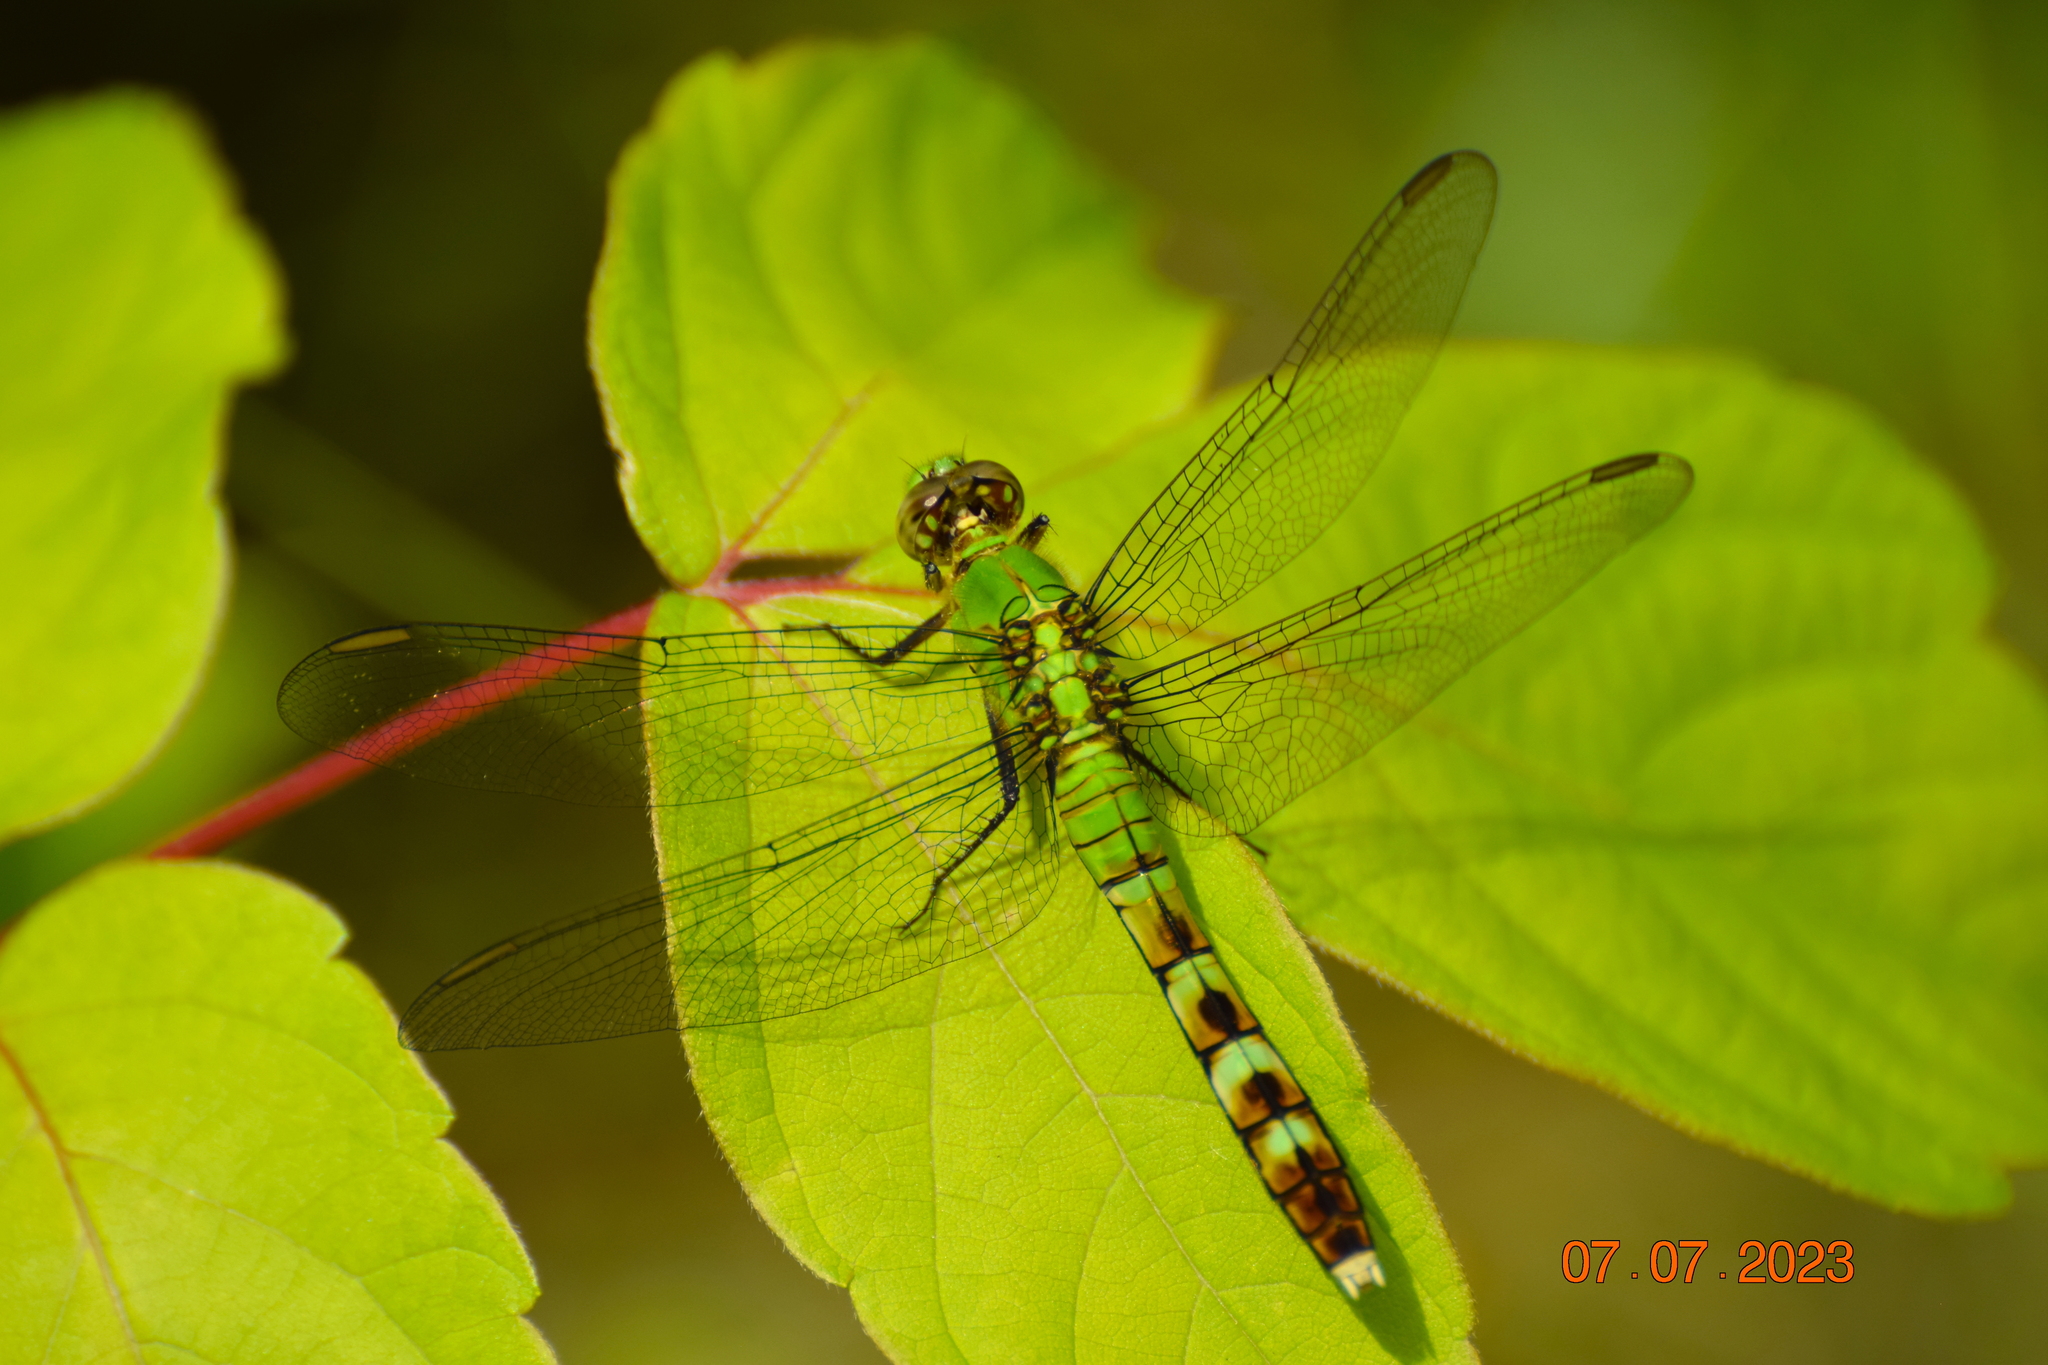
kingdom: Animalia
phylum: Arthropoda
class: Insecta
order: Odonata
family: Libellulidae
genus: Erythemis
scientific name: Erythemis simplicicollis
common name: Eastern pondhawk
